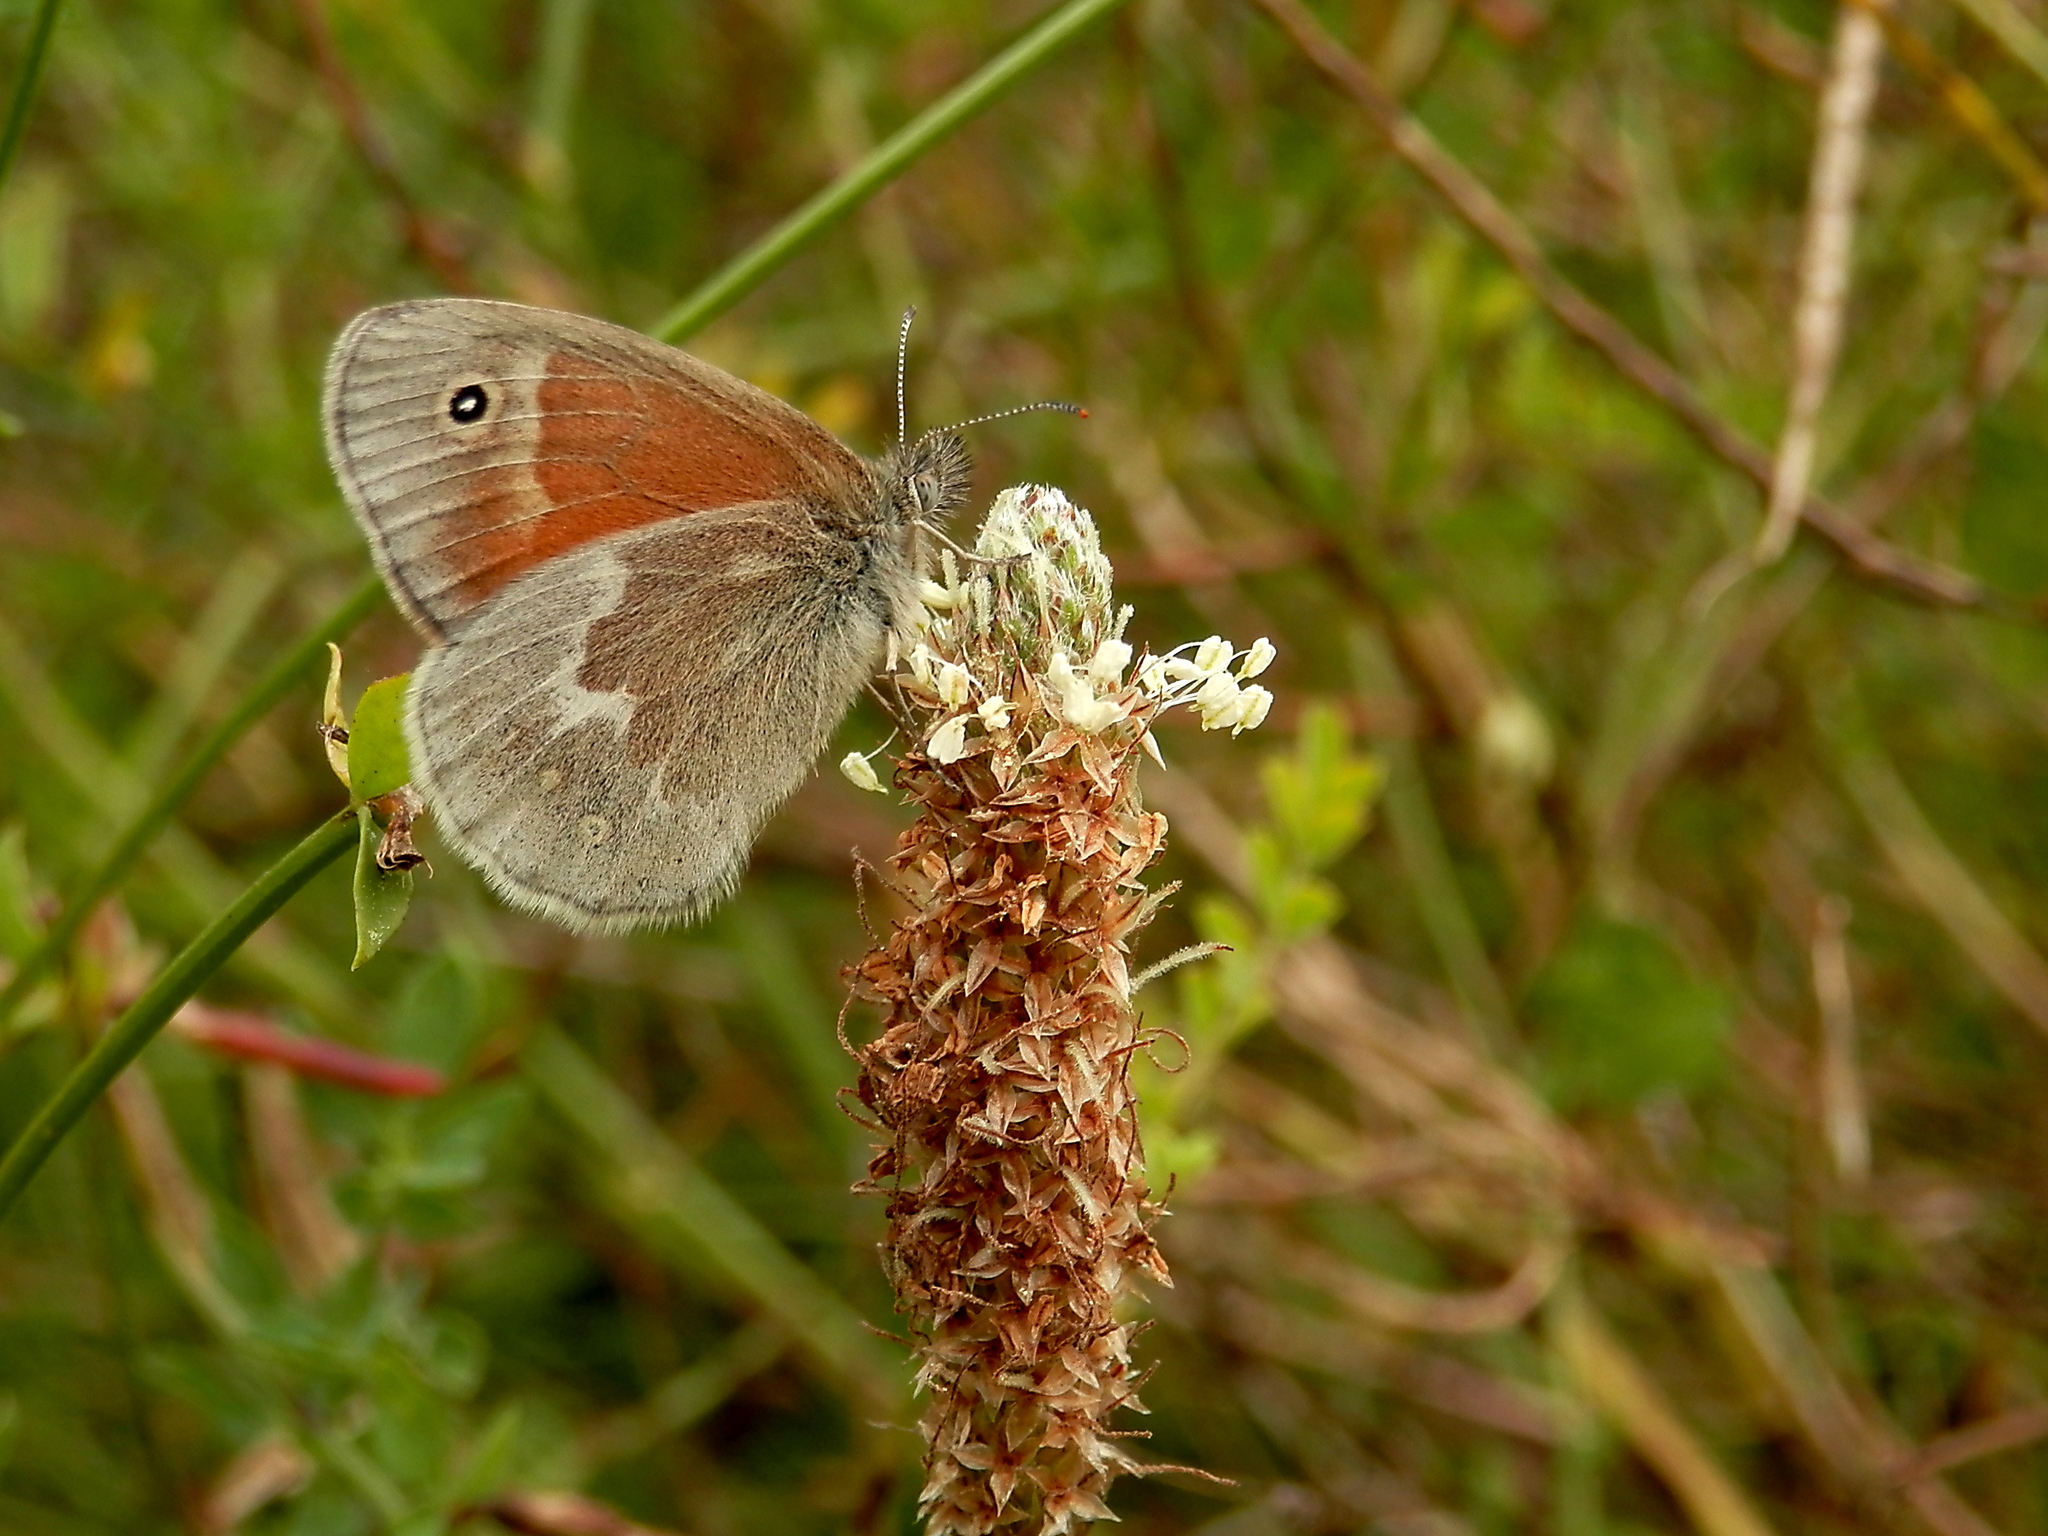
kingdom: Animalia
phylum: Arthropoda
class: Insecta
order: Lepidoptera
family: Nymphalidae
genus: Coenonympha
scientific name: Coenonympha california
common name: Common ringlet
